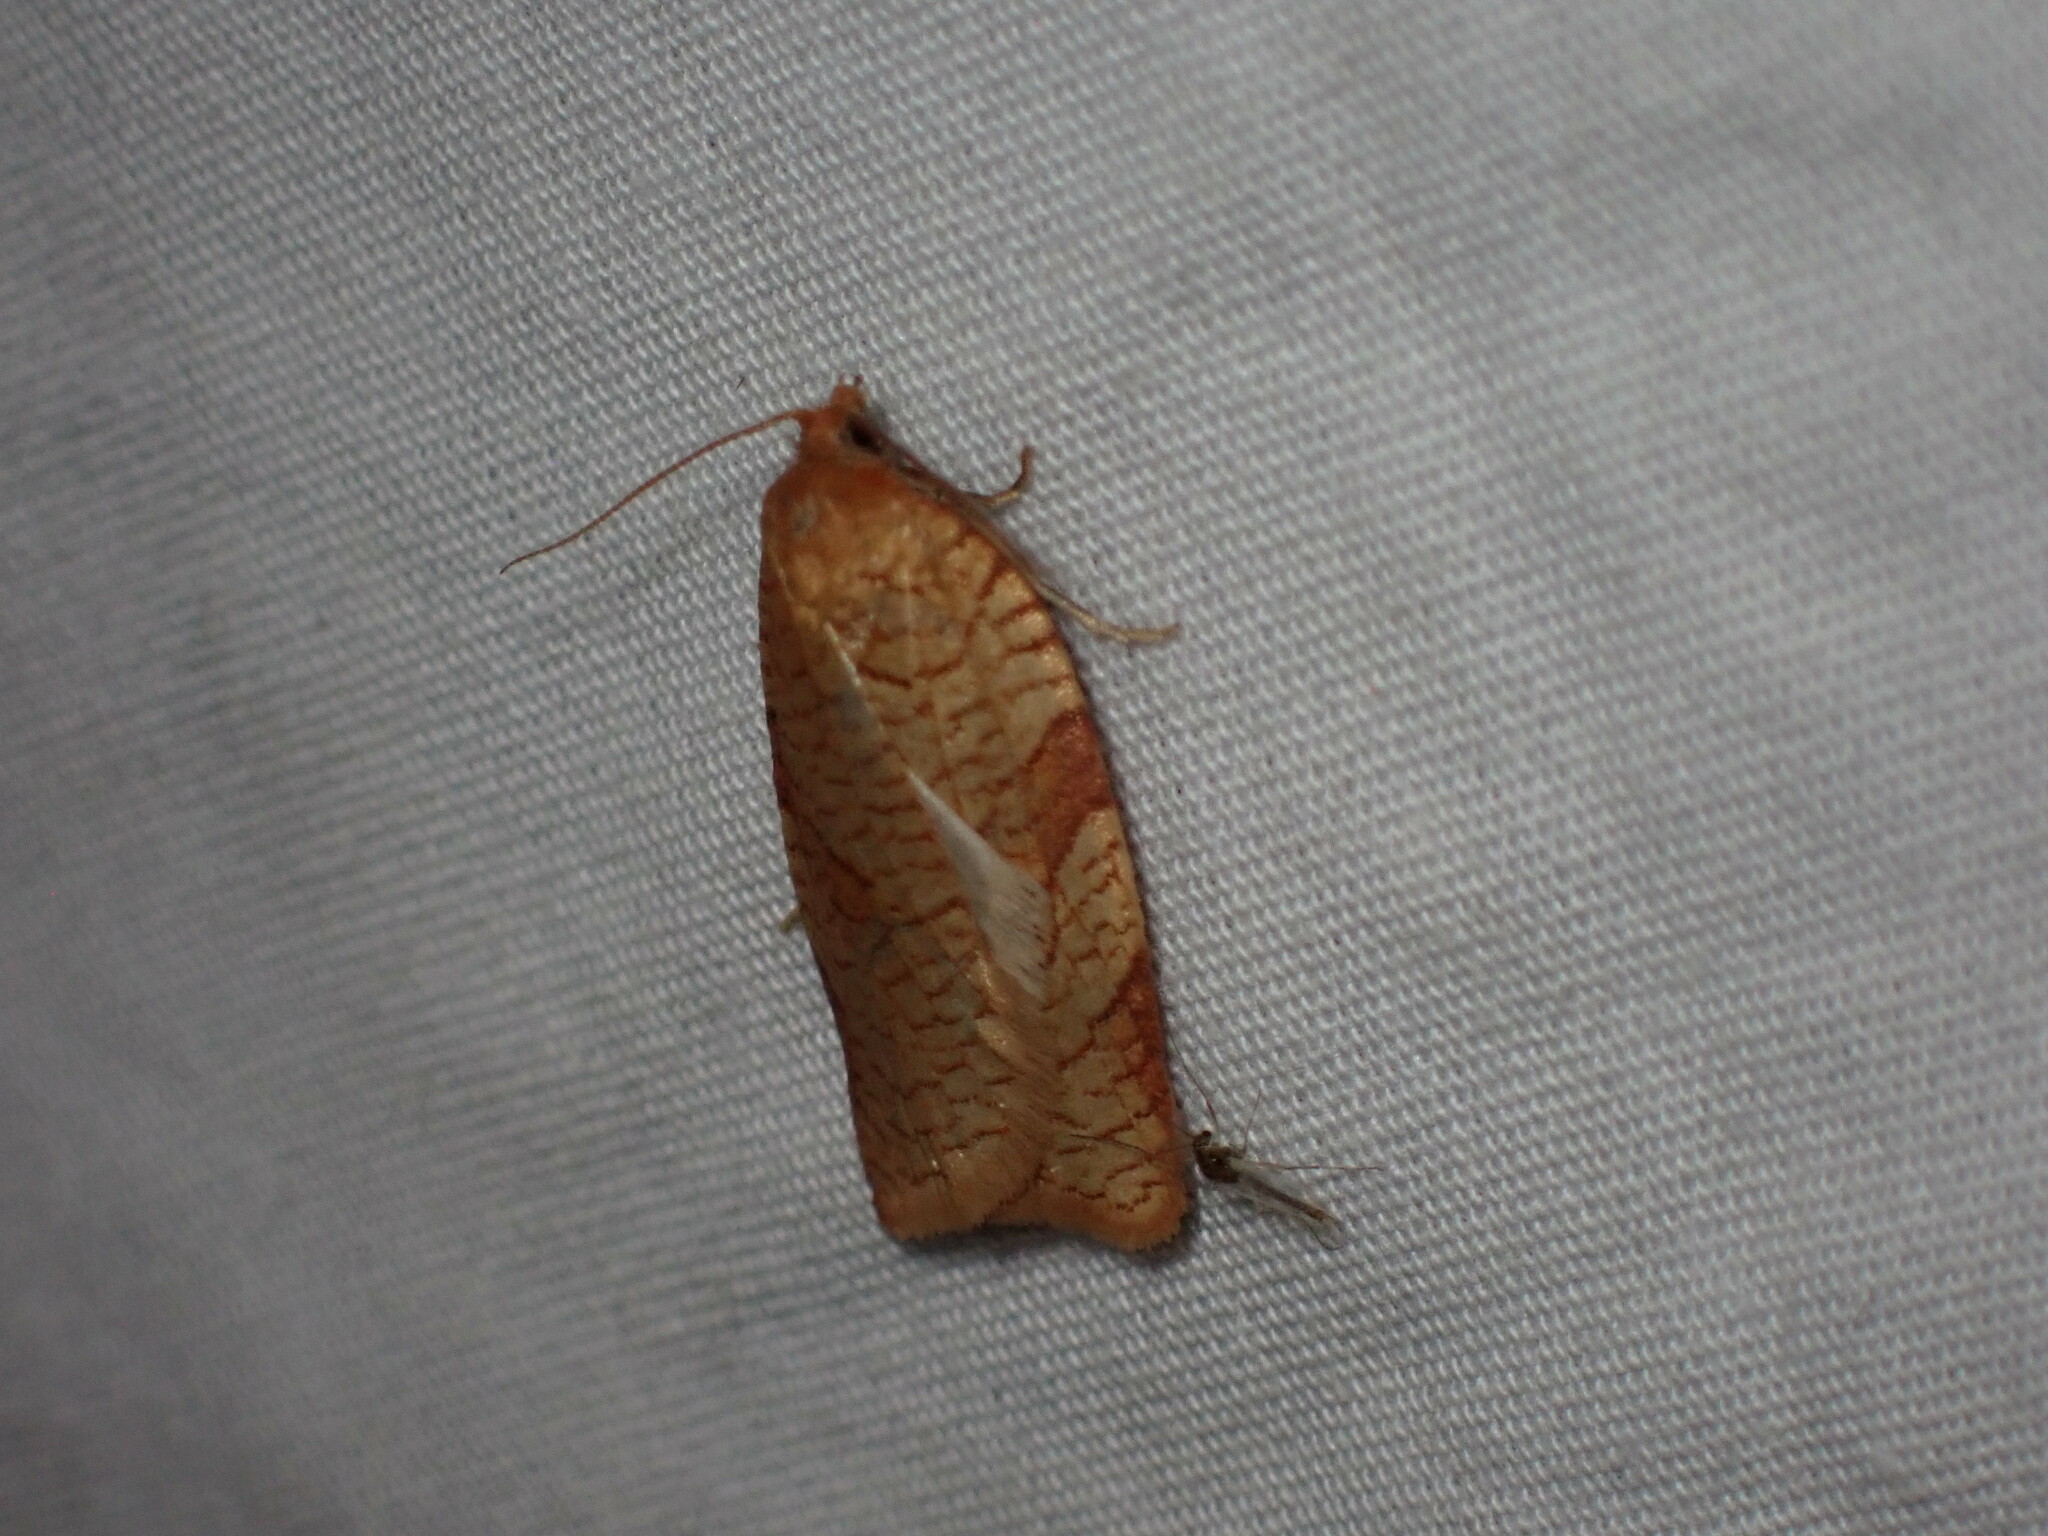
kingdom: Animalia
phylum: Arthropoda
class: Insecta
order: Lepidoptera
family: Tortricidae
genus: Choristoneura
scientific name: Choristoneura rosaceana
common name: Oblique-banded leafroller moth
